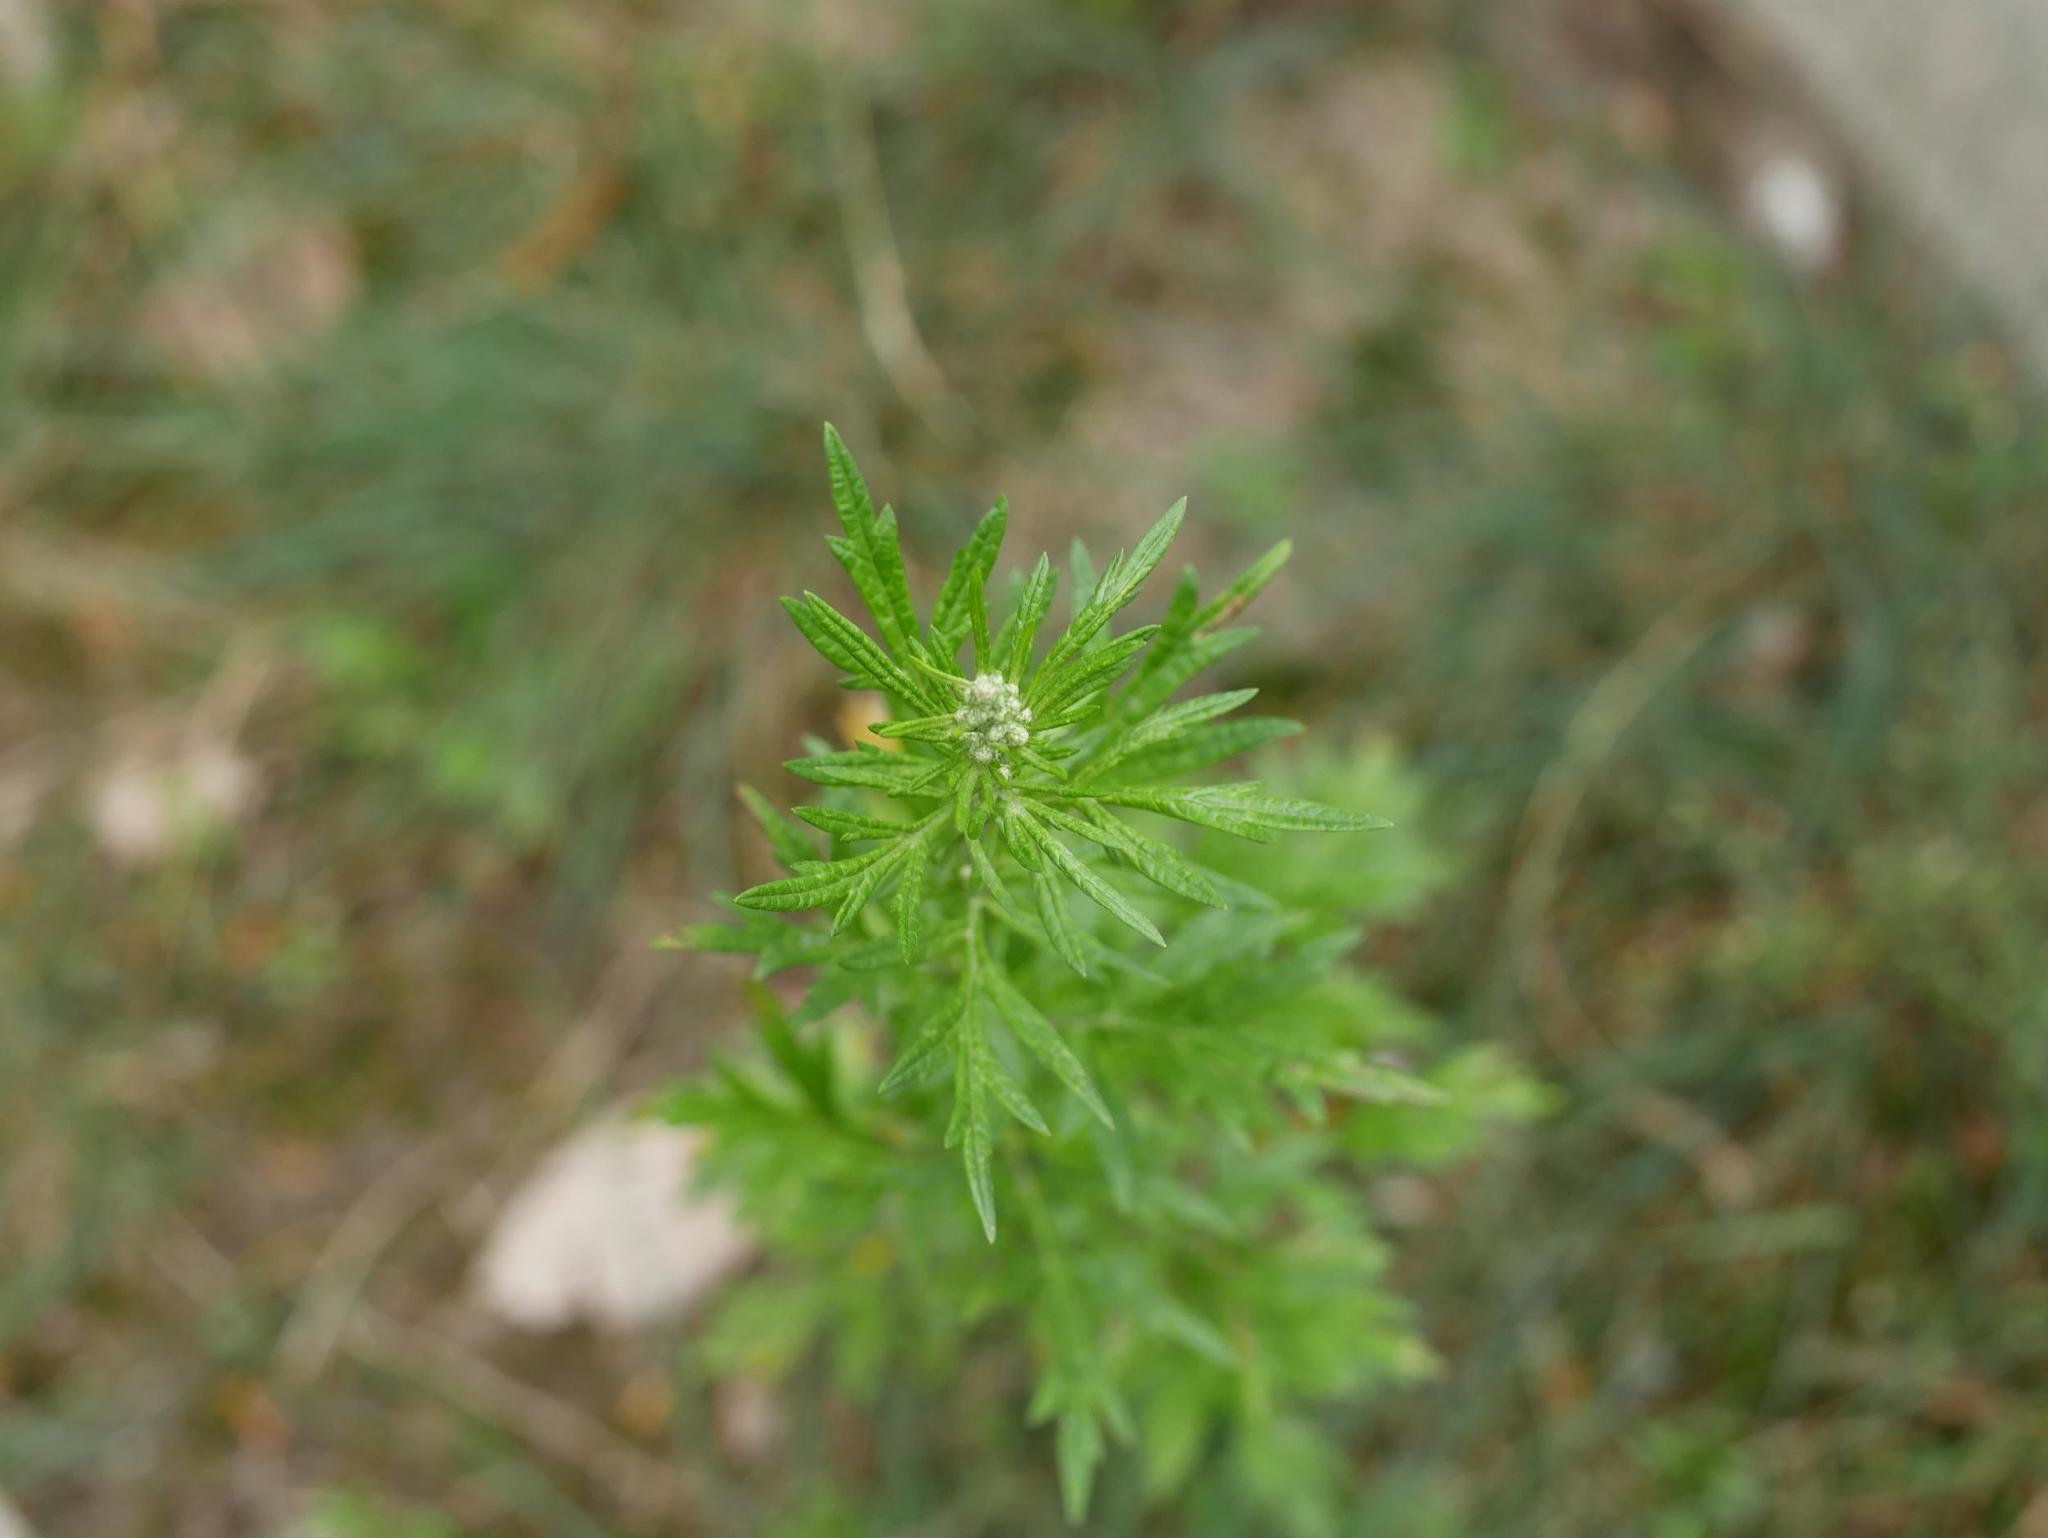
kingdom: Plantae
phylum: Tracheophyta
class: Magnoliopsida
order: Asterales
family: Asteraceae
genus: Artemisia
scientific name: Artemisia vulgaris
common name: Mugwort
